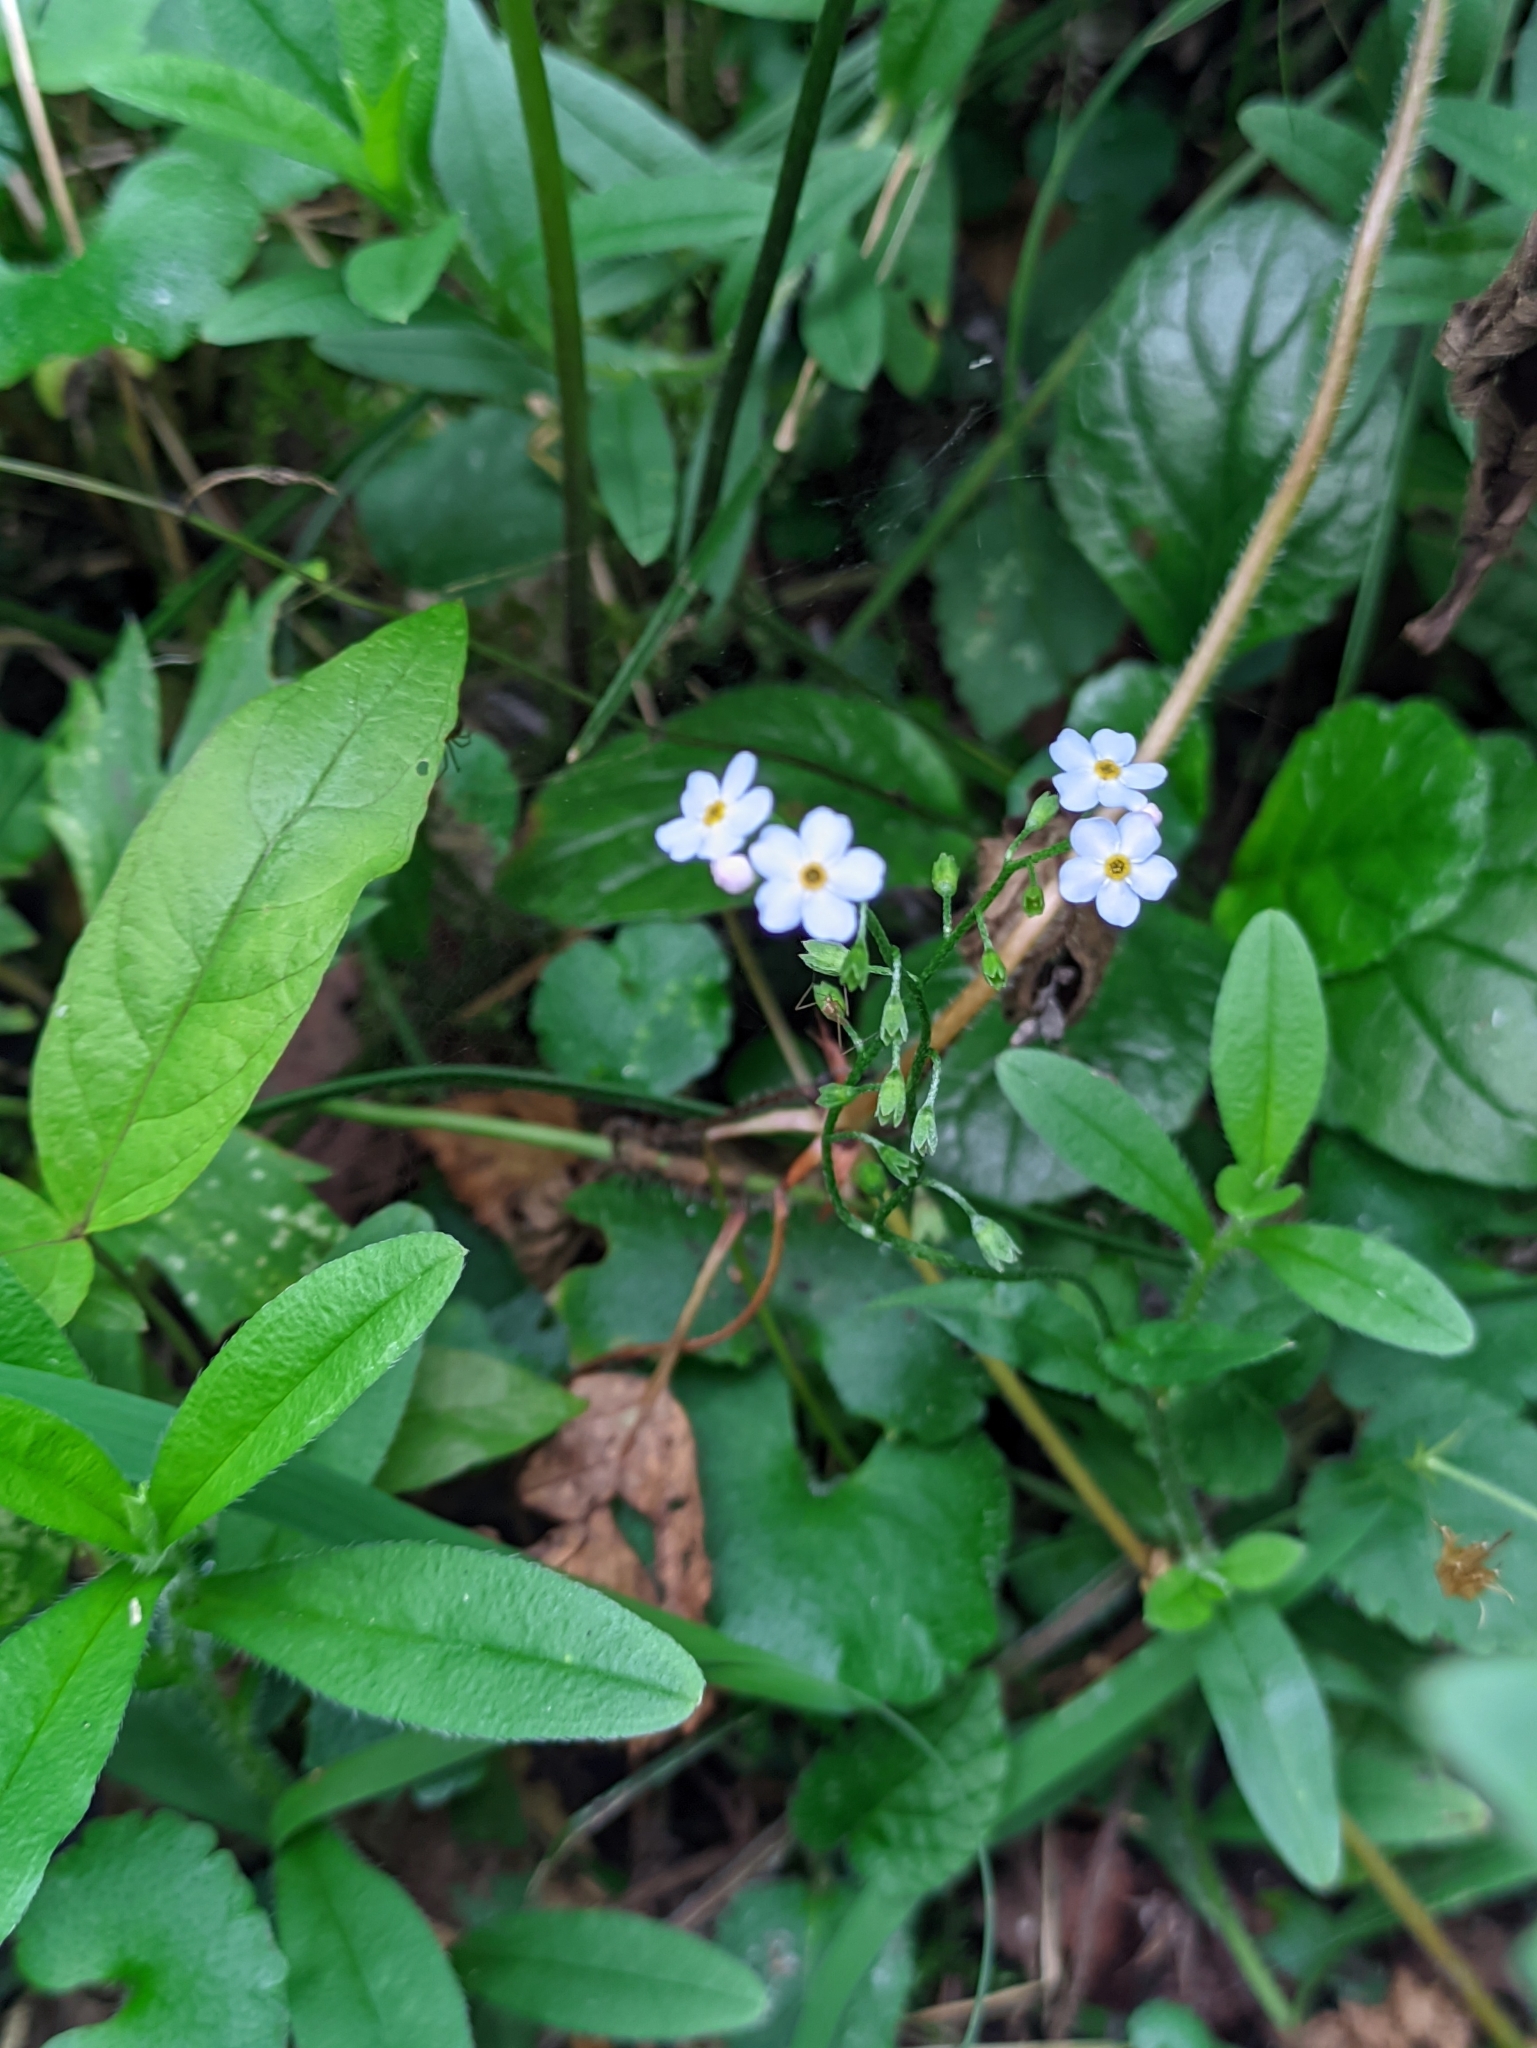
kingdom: Plantae
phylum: Tracheophyta
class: Magnoliopsida
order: Boraginales
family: Boraginaceae
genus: Myosotis
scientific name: Myosotis scorpioides
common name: Water forget-me-not
